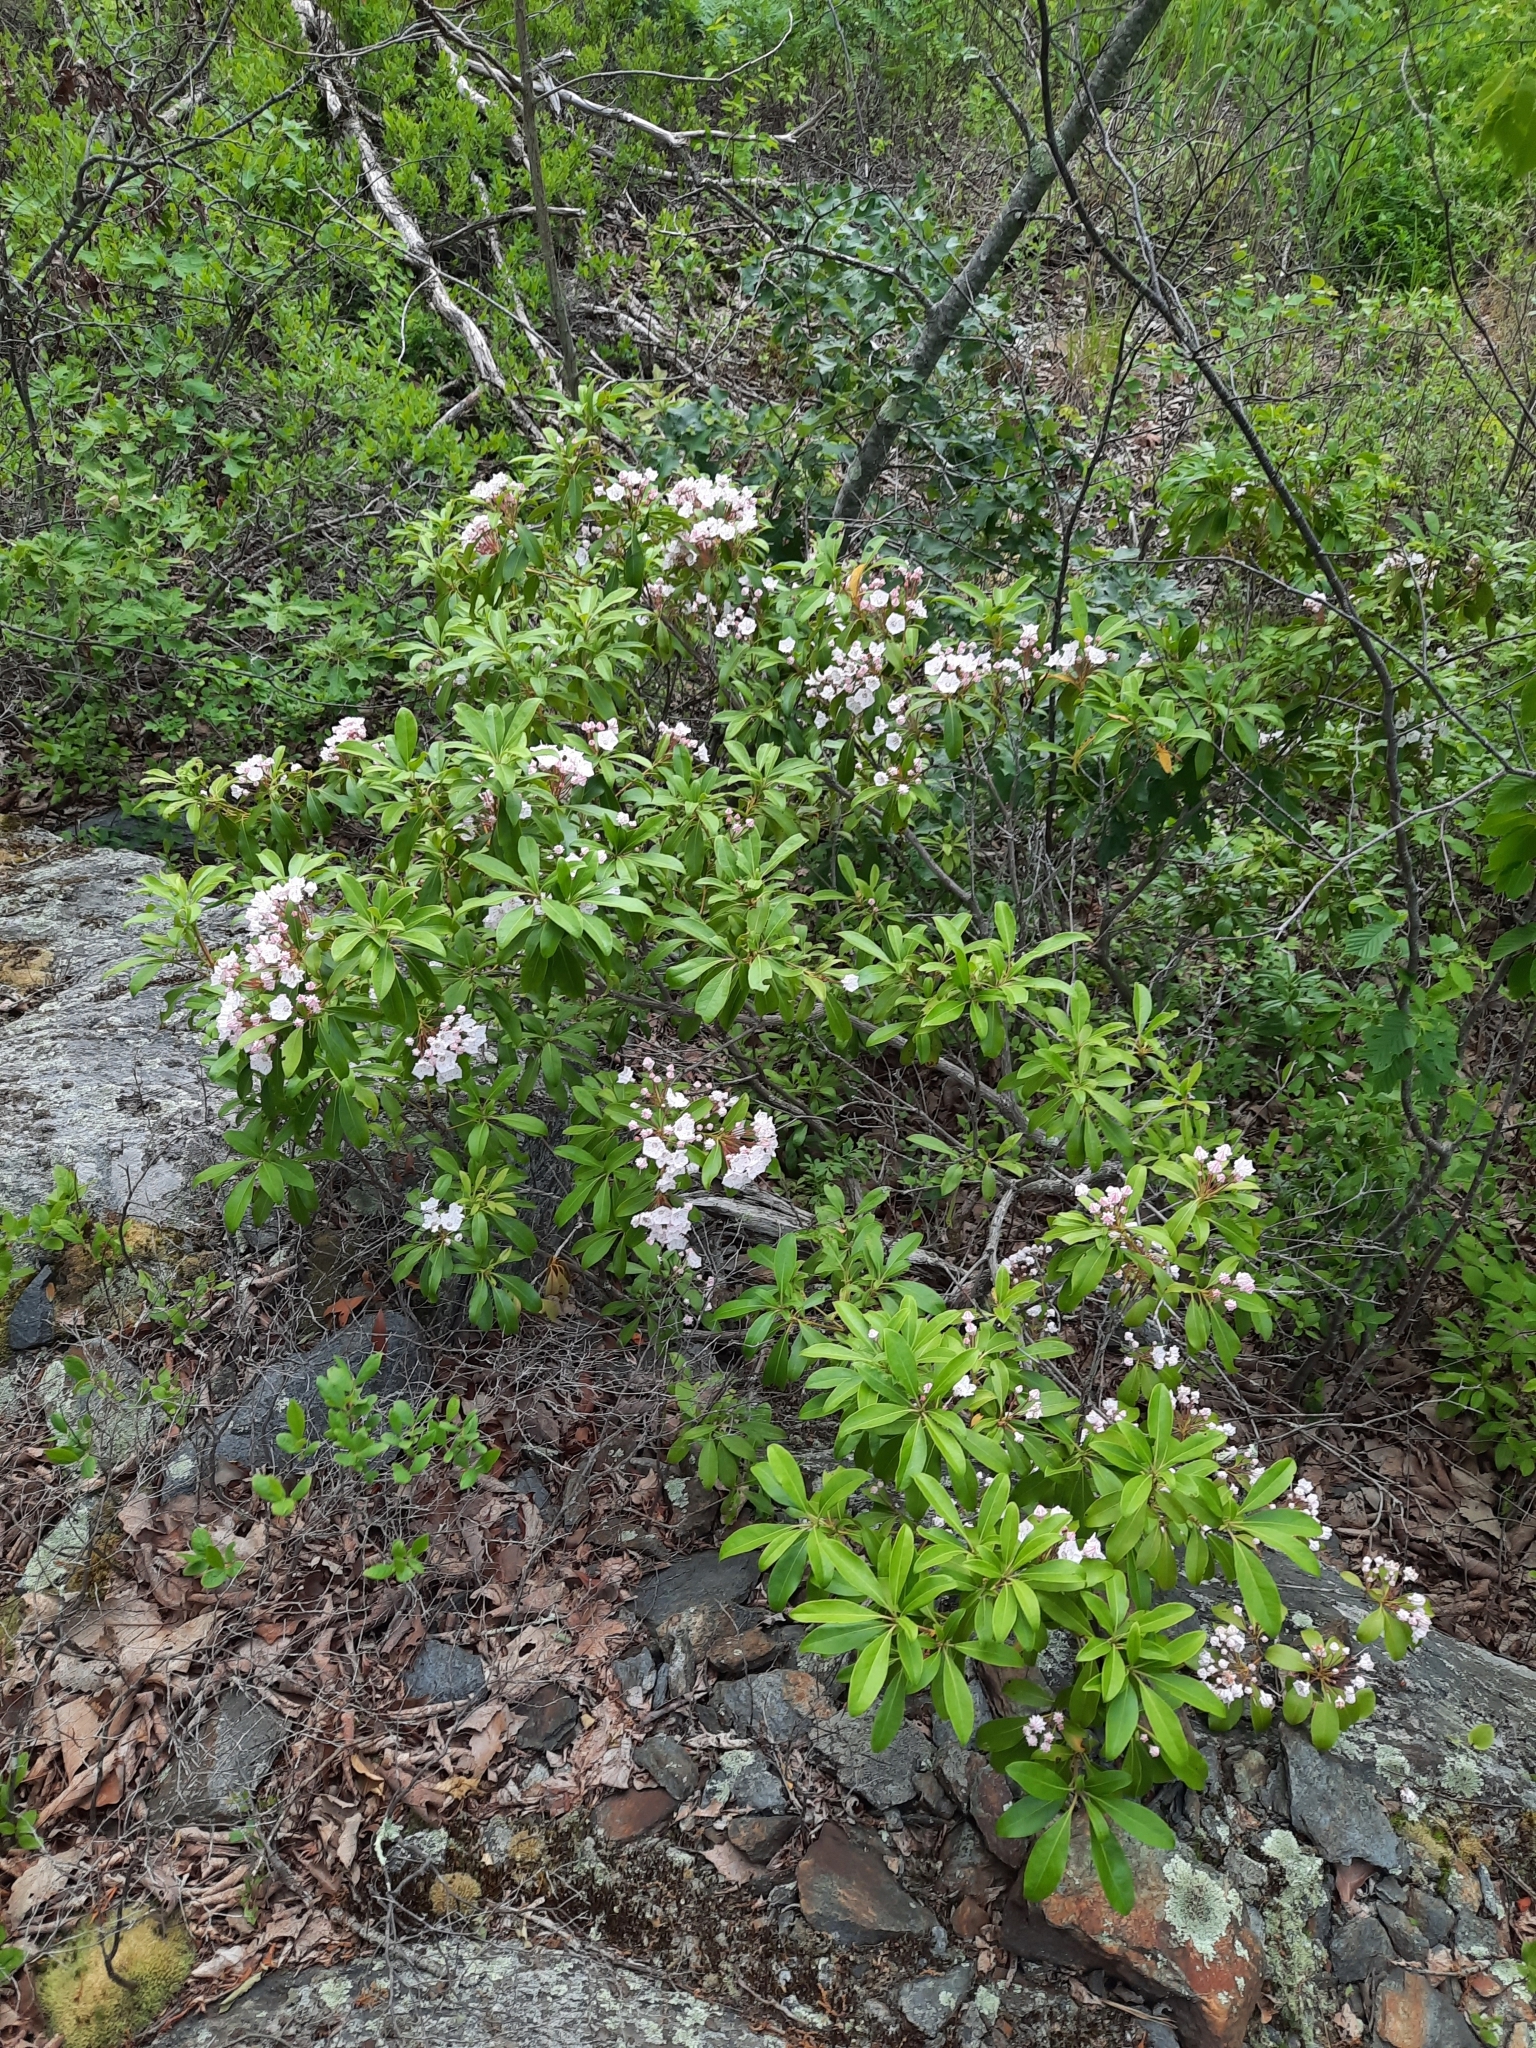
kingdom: Plantae
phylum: Tracheophyta
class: Magnoliopsida
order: Ericales
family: Ericaceae
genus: Kalmia
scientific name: Kalmia latifolia
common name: Mountain-laurel
